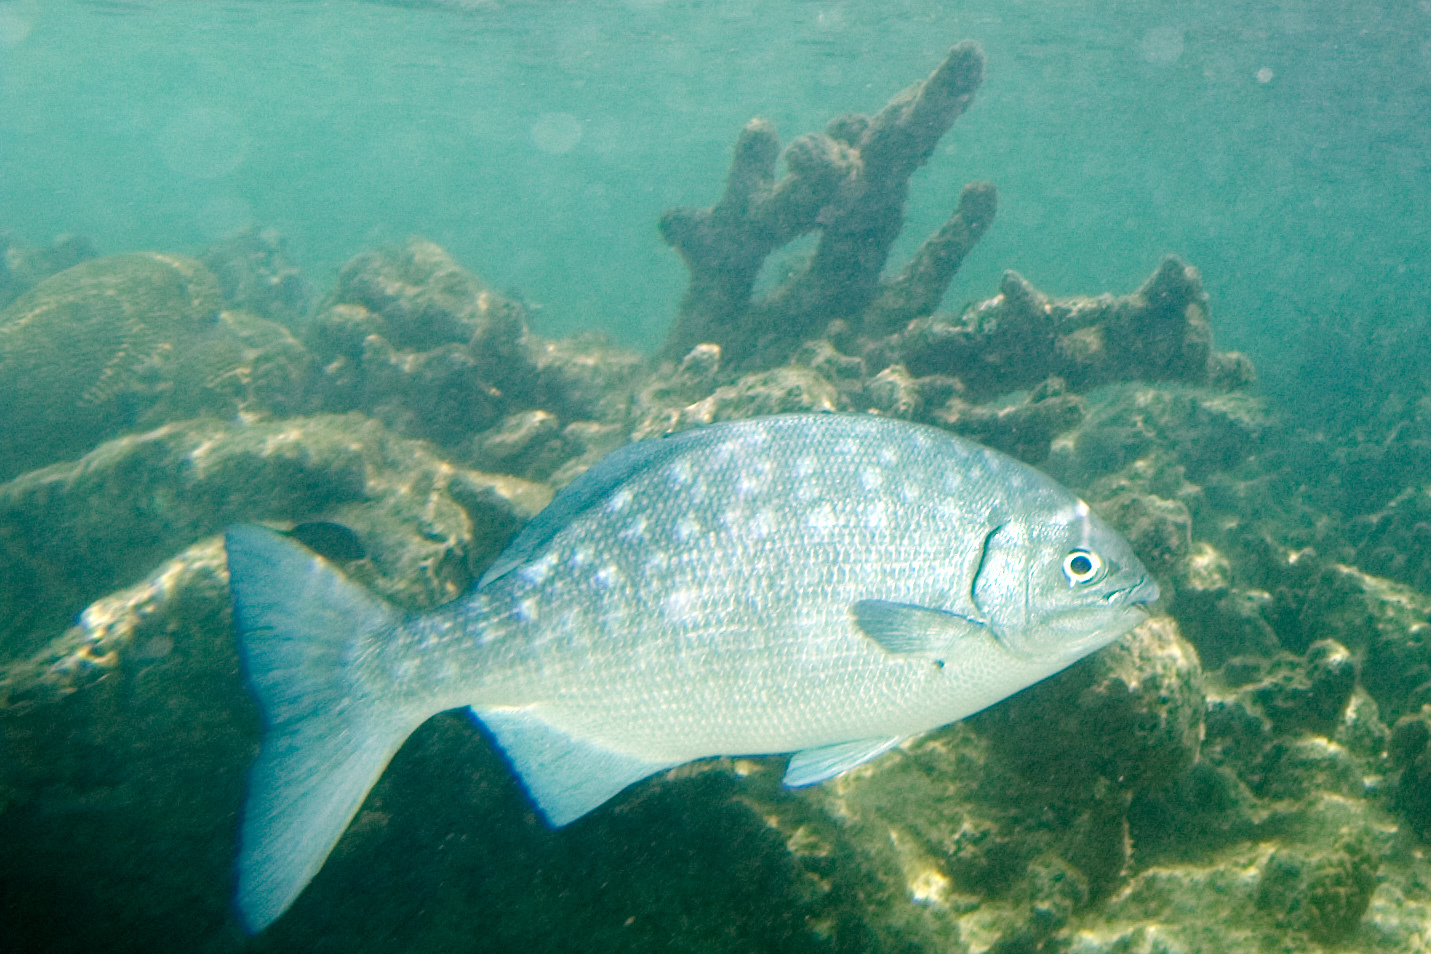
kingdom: Animalia
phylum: Chordata
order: Perciformes
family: Kyphosidae
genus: Kyphosus
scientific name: Kyphosus sectatrix
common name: Bermuda chub
